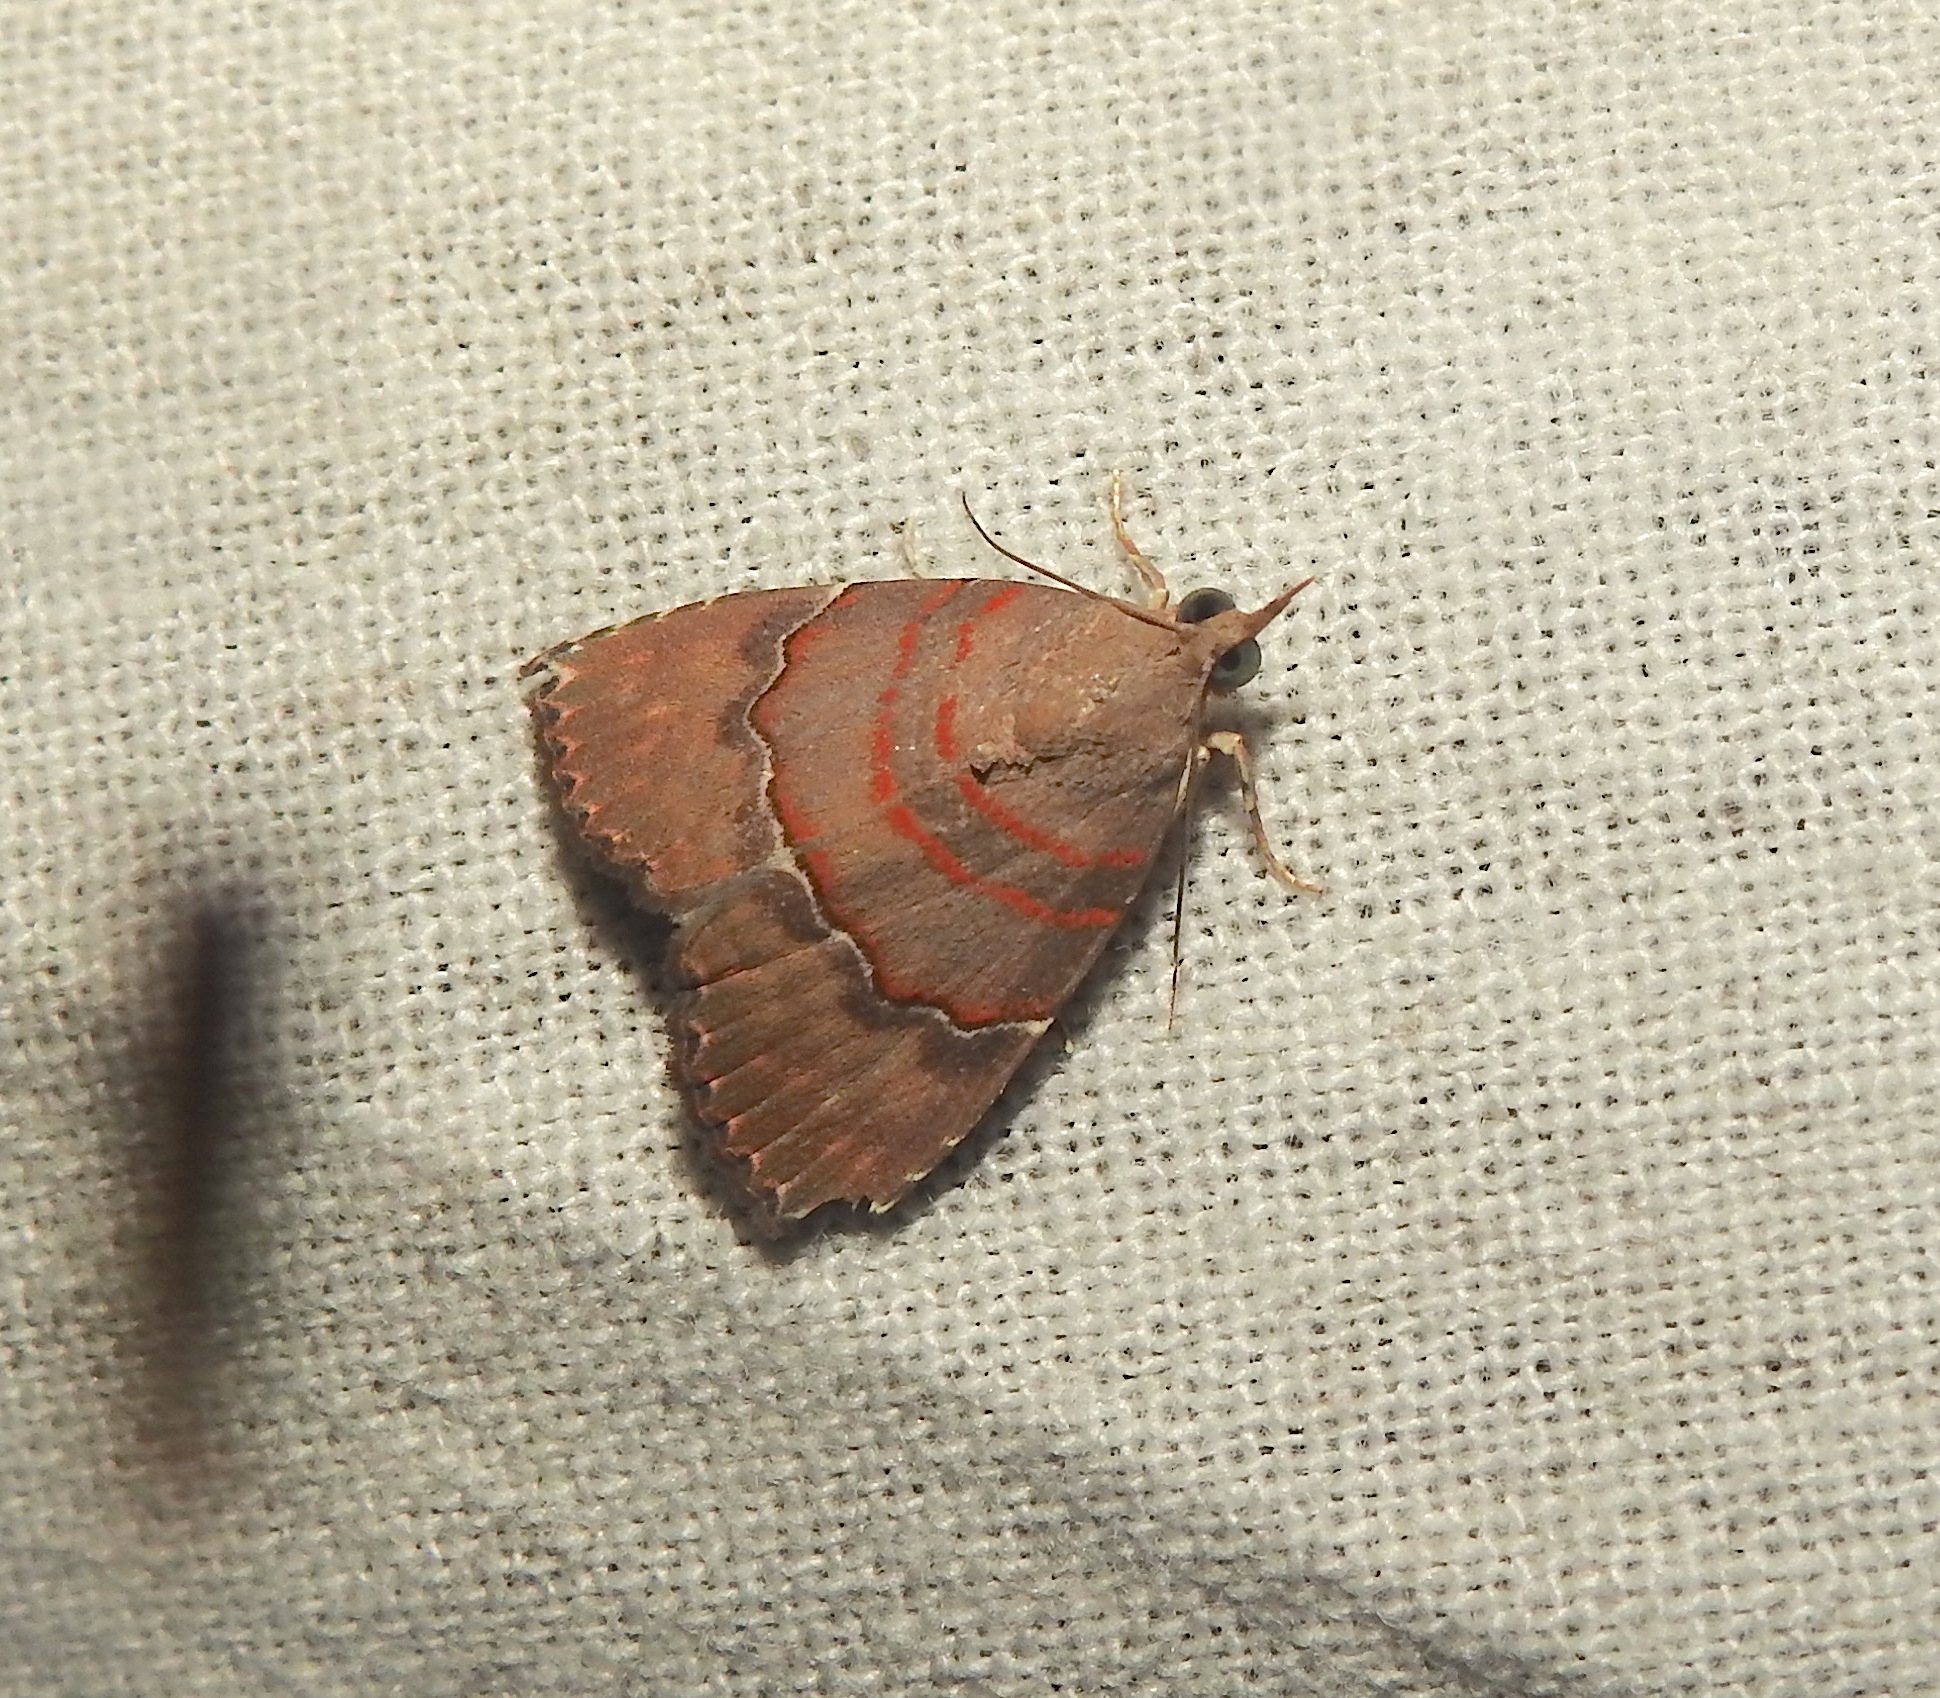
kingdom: Animalia
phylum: Arthropoda
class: Insecta
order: Lepidoptera
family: Erebidae
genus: Nolasena
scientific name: Nolasena ferrifervens
